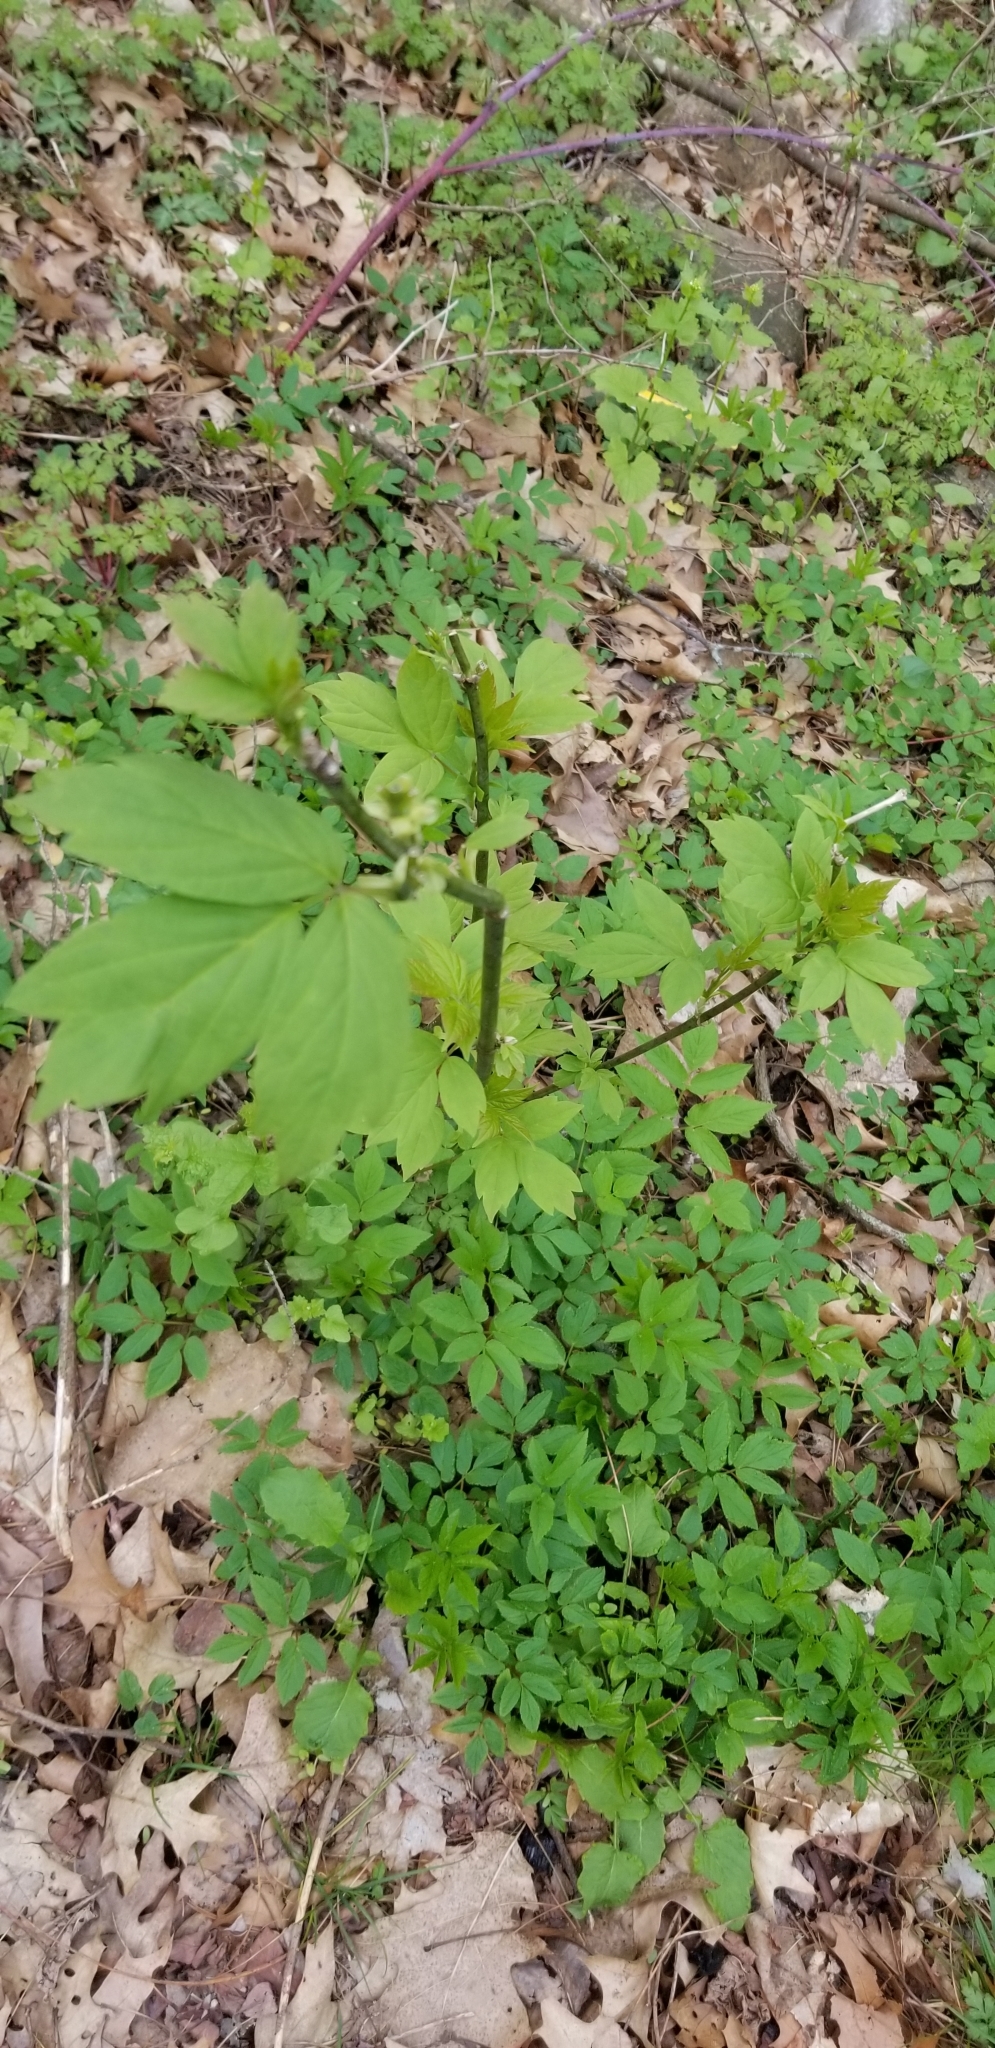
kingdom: Plantae
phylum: Tracheophyta
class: Magnoliopsida
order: Sapindales
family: Sapindaceae
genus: Acer
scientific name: Acer negundo
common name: Ashleaf maple
